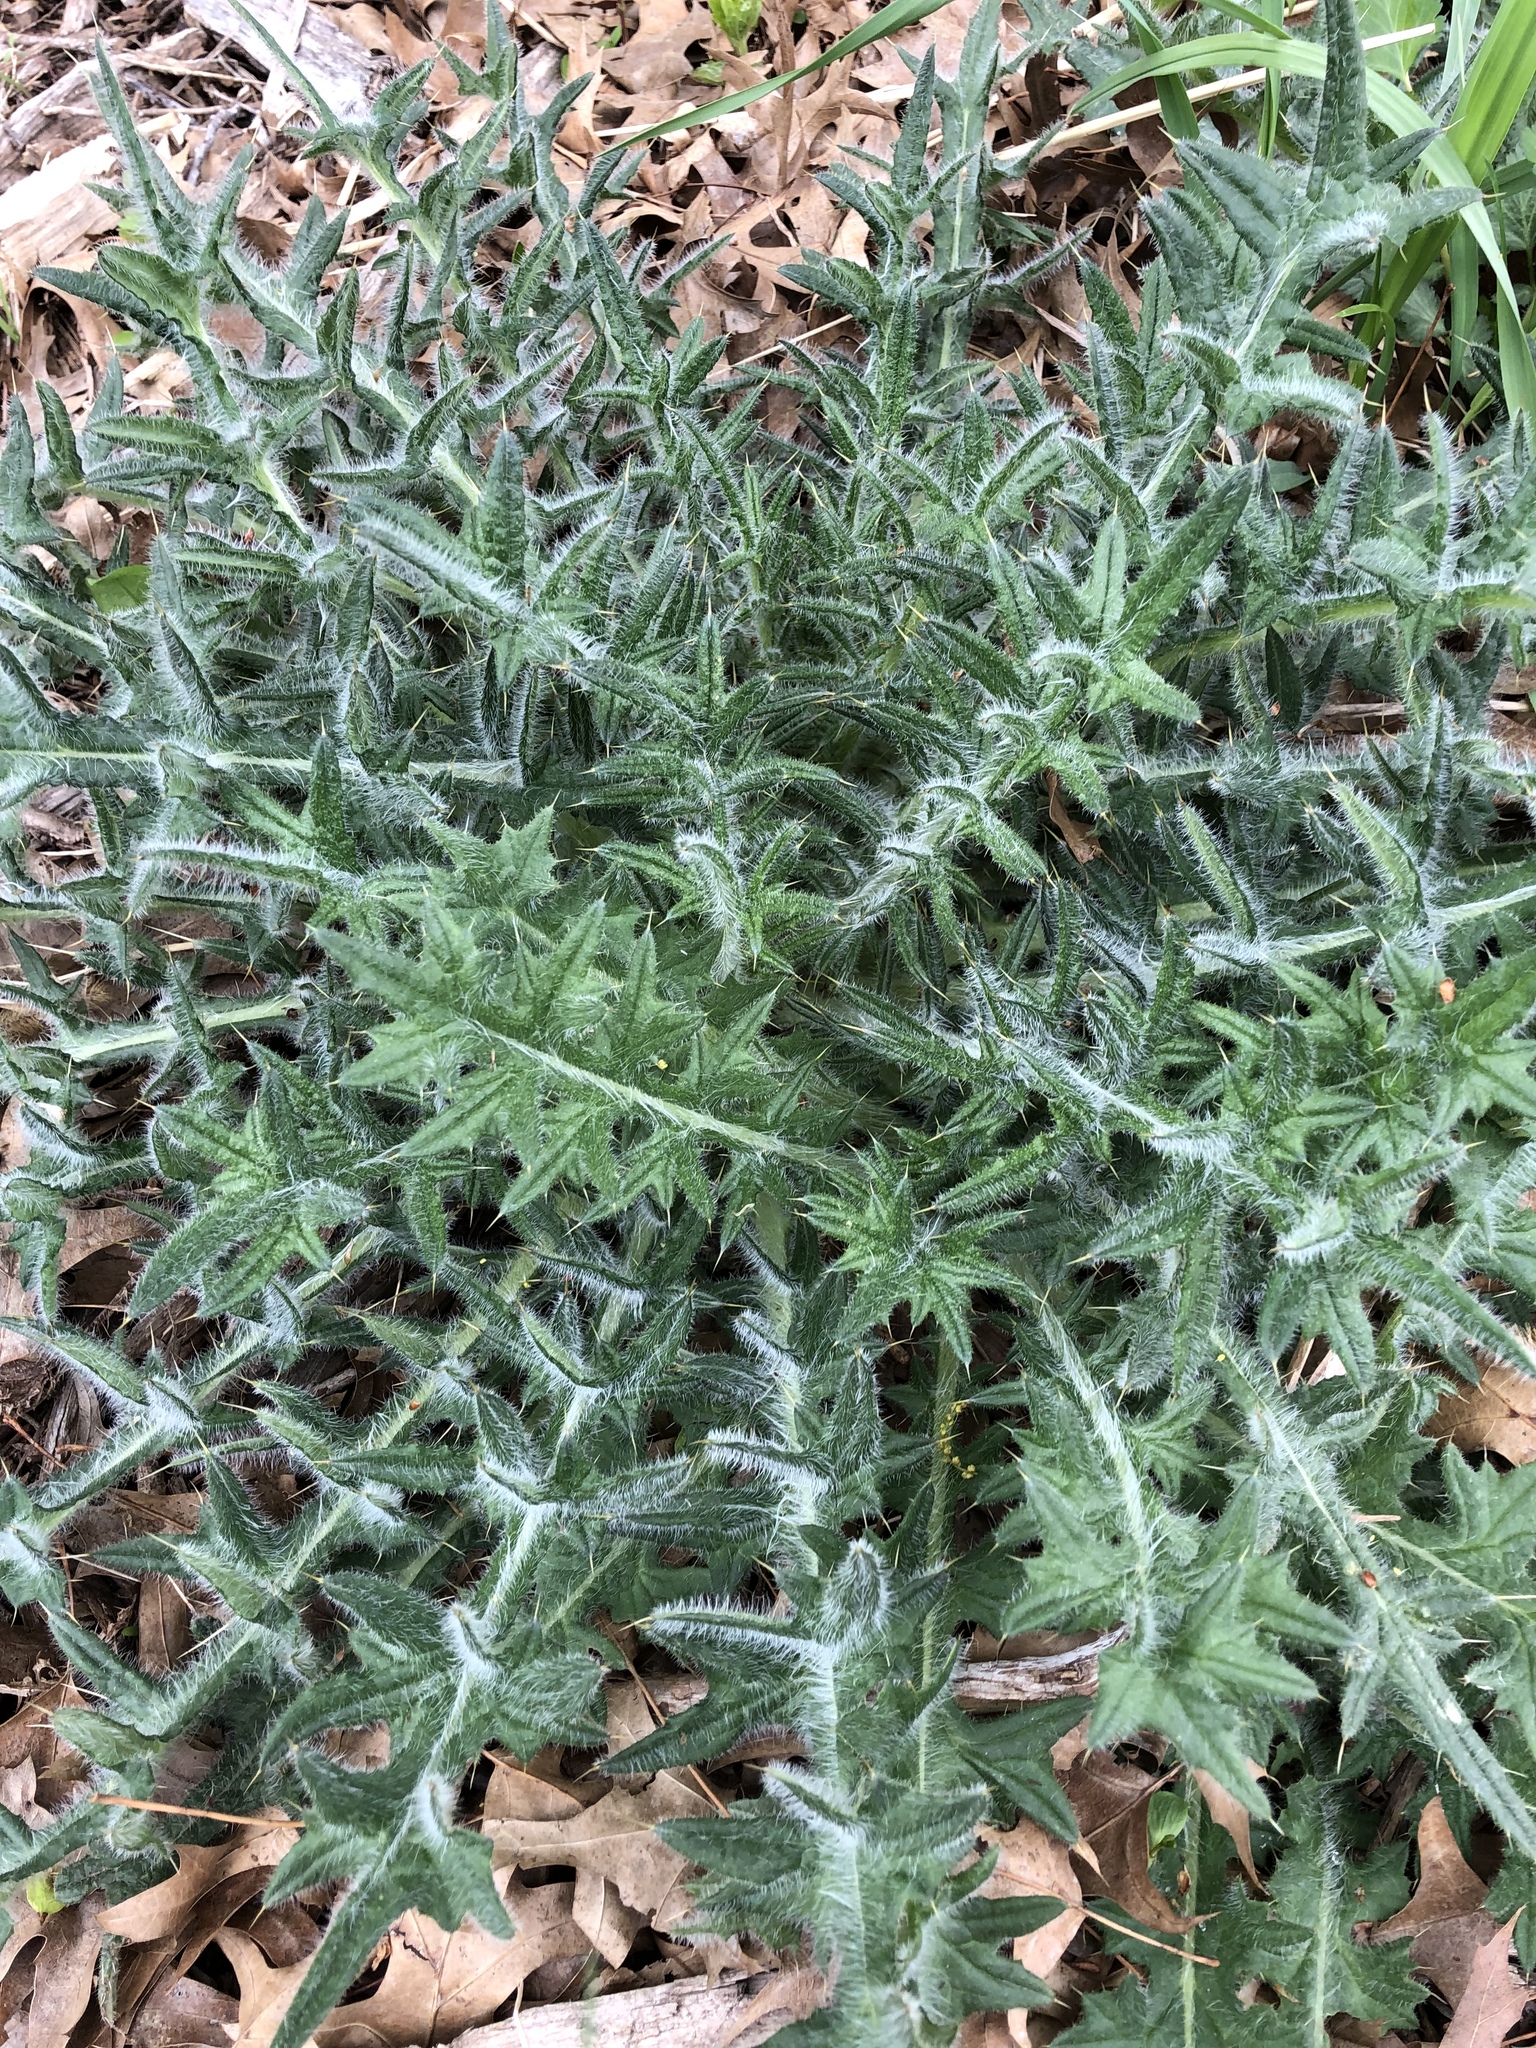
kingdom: Plantae
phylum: Tracheophyta
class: Magnoliopsida
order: Asterales
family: Asteraceae
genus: Cirsium
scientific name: Cirsium vulgare
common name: Bull thistle
